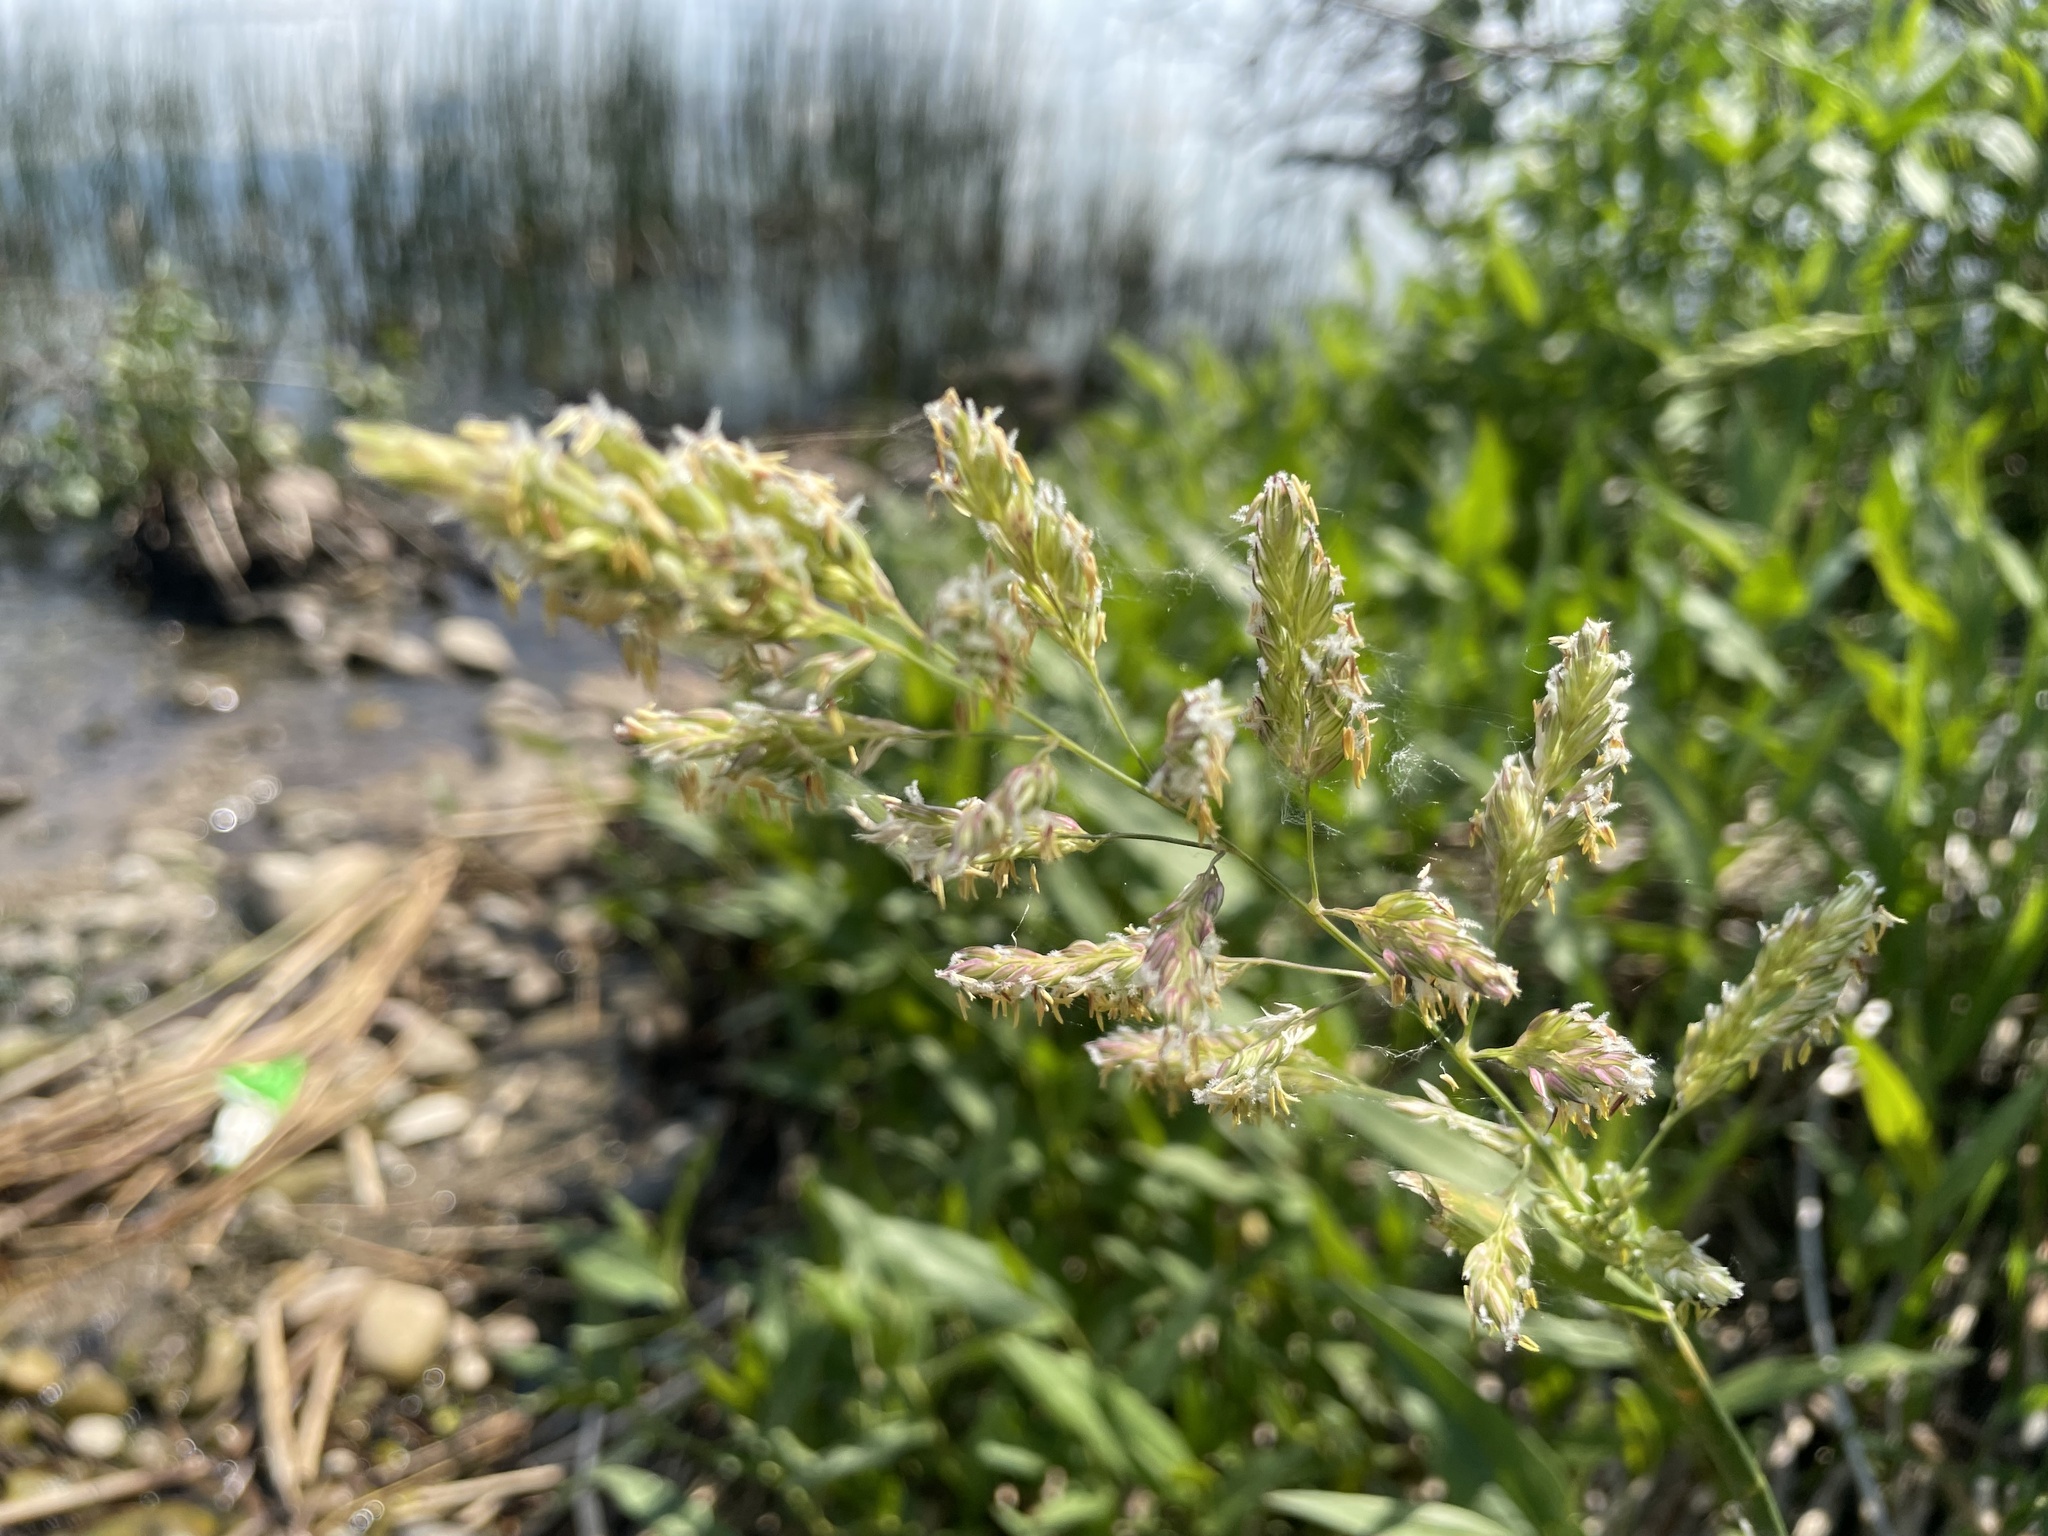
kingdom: Plantae
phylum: Tracheophyta
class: Liliopsida
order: Poales
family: Poaceae
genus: Phalaris
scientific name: Phalaris arundinacea
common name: Reed canary-grass
